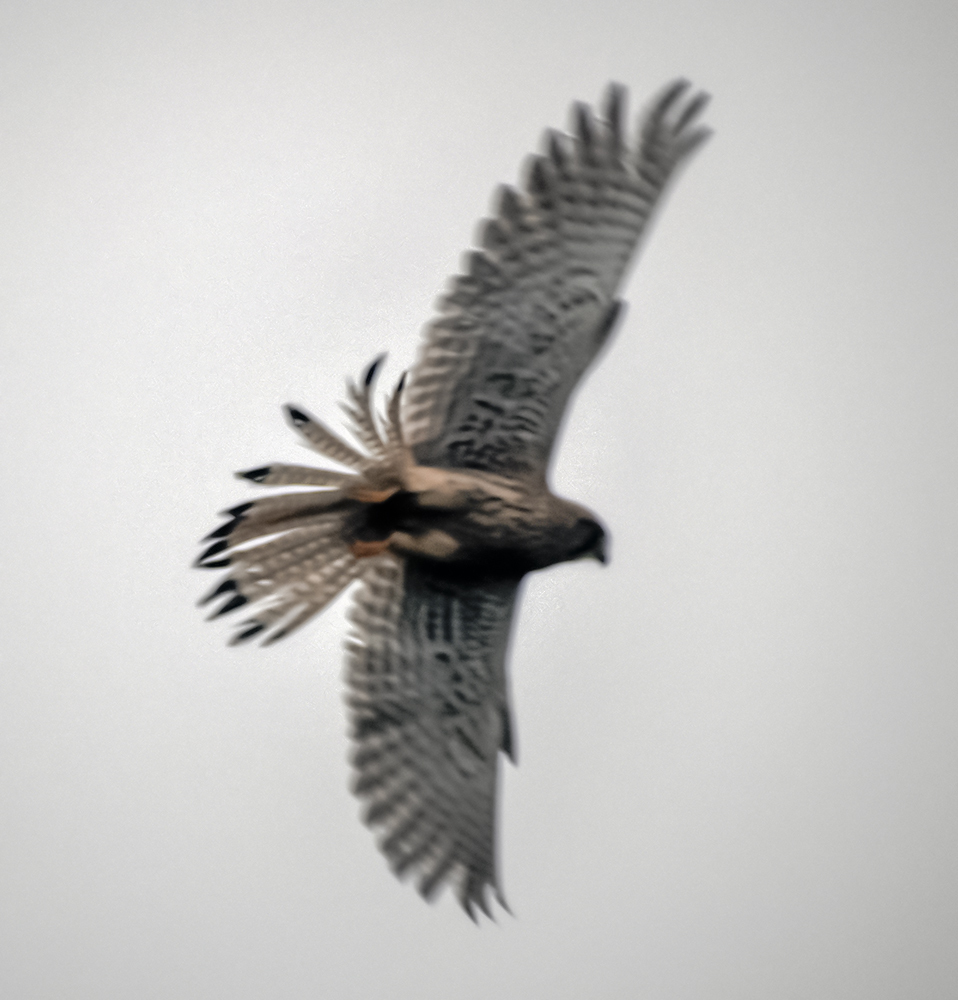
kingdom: Animalia
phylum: Chordata
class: Aves
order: Falconiformes
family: Falconidae
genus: Falco
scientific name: Falco tinnunculus
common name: Common kestrel
